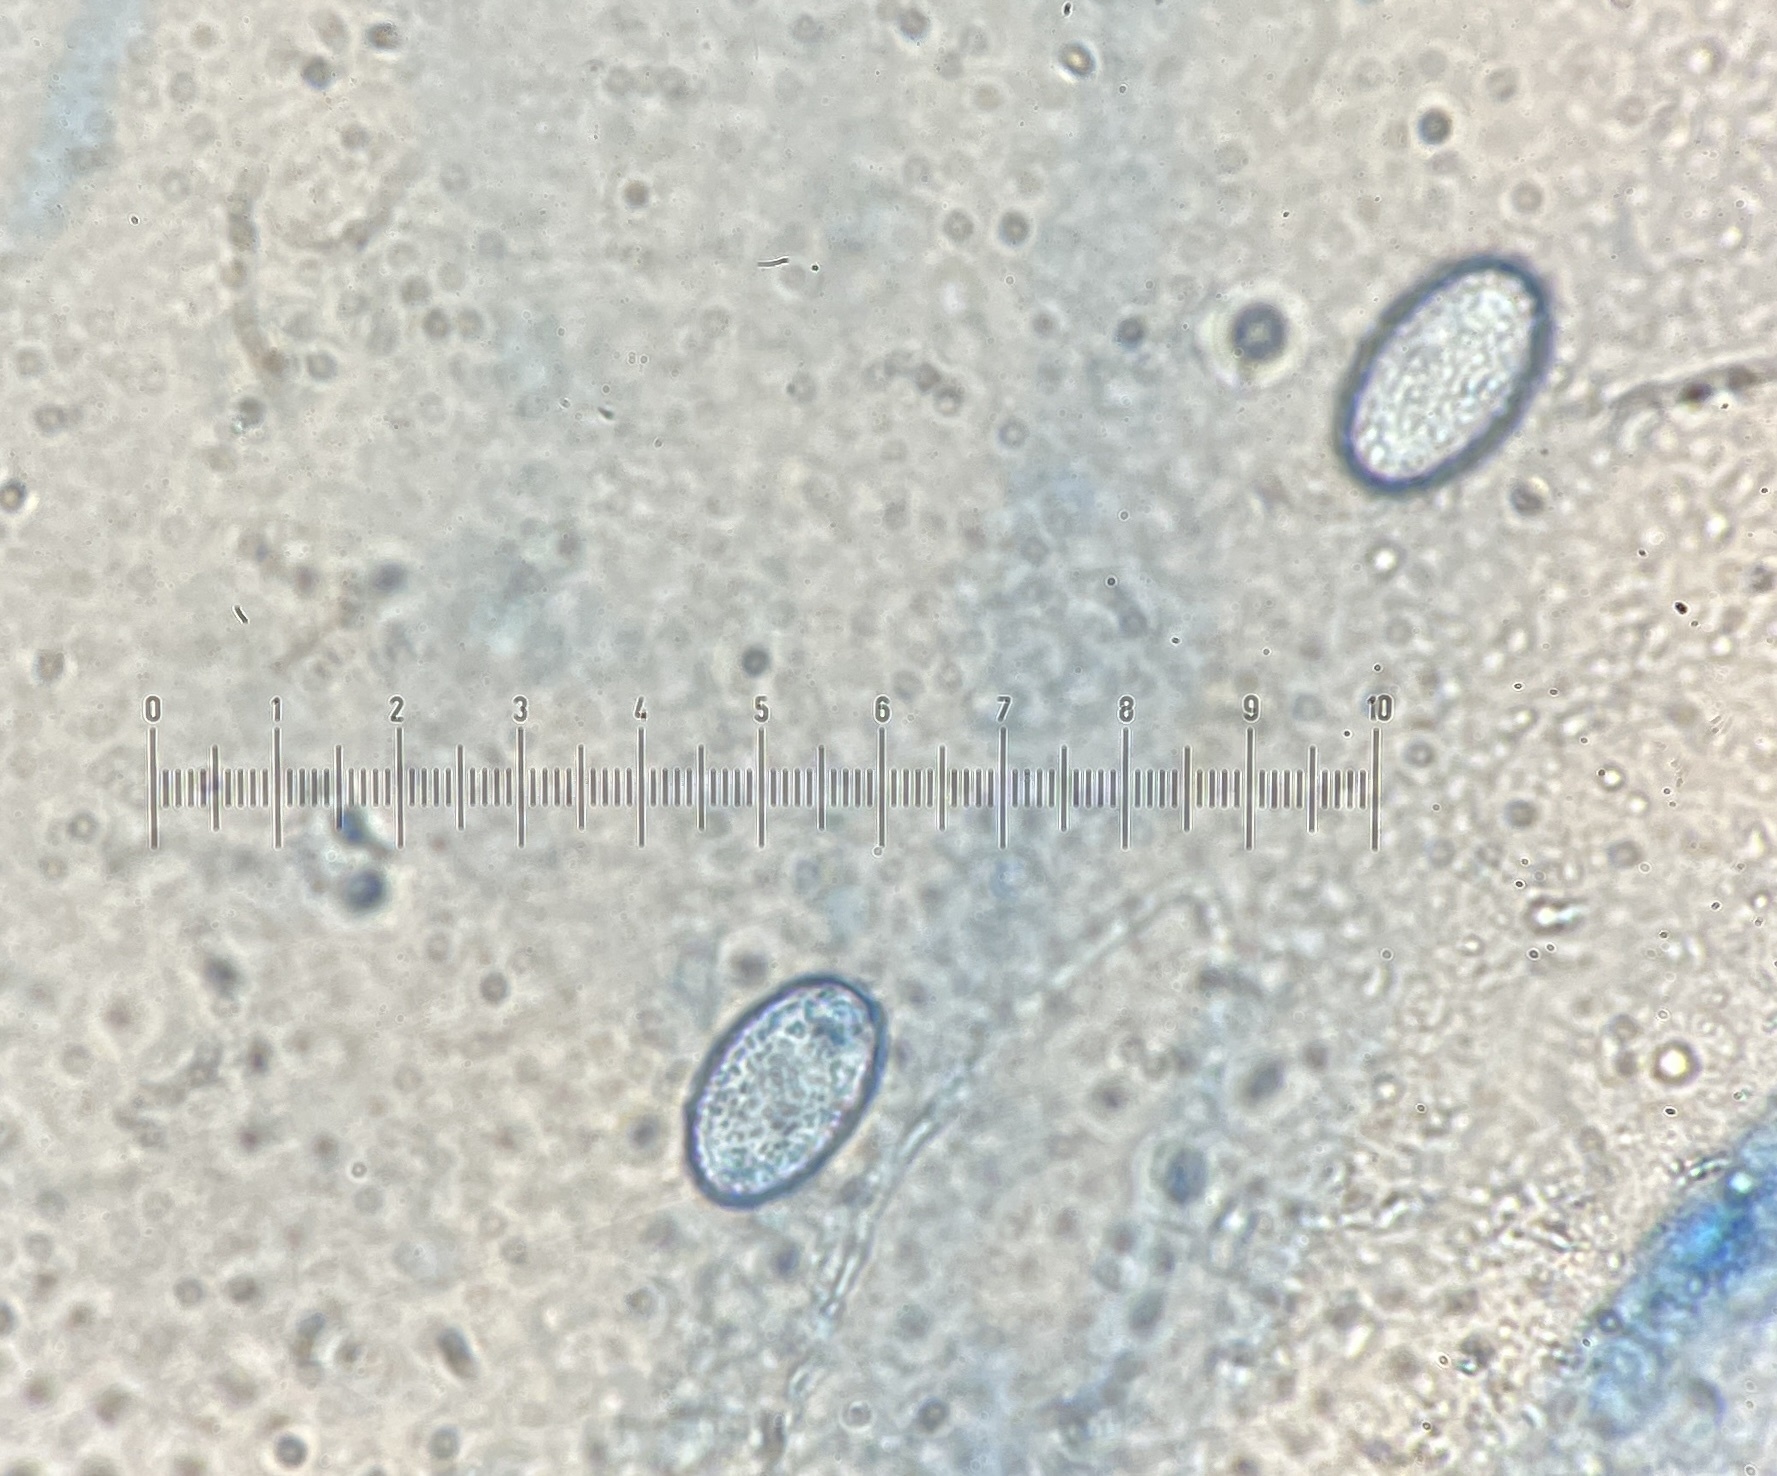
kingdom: Fungi
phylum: Ascomycota
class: Pezizomycetes
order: Pezizales
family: Pyronemataceae
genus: Scutellinia
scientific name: Scutellinia subhirtella
